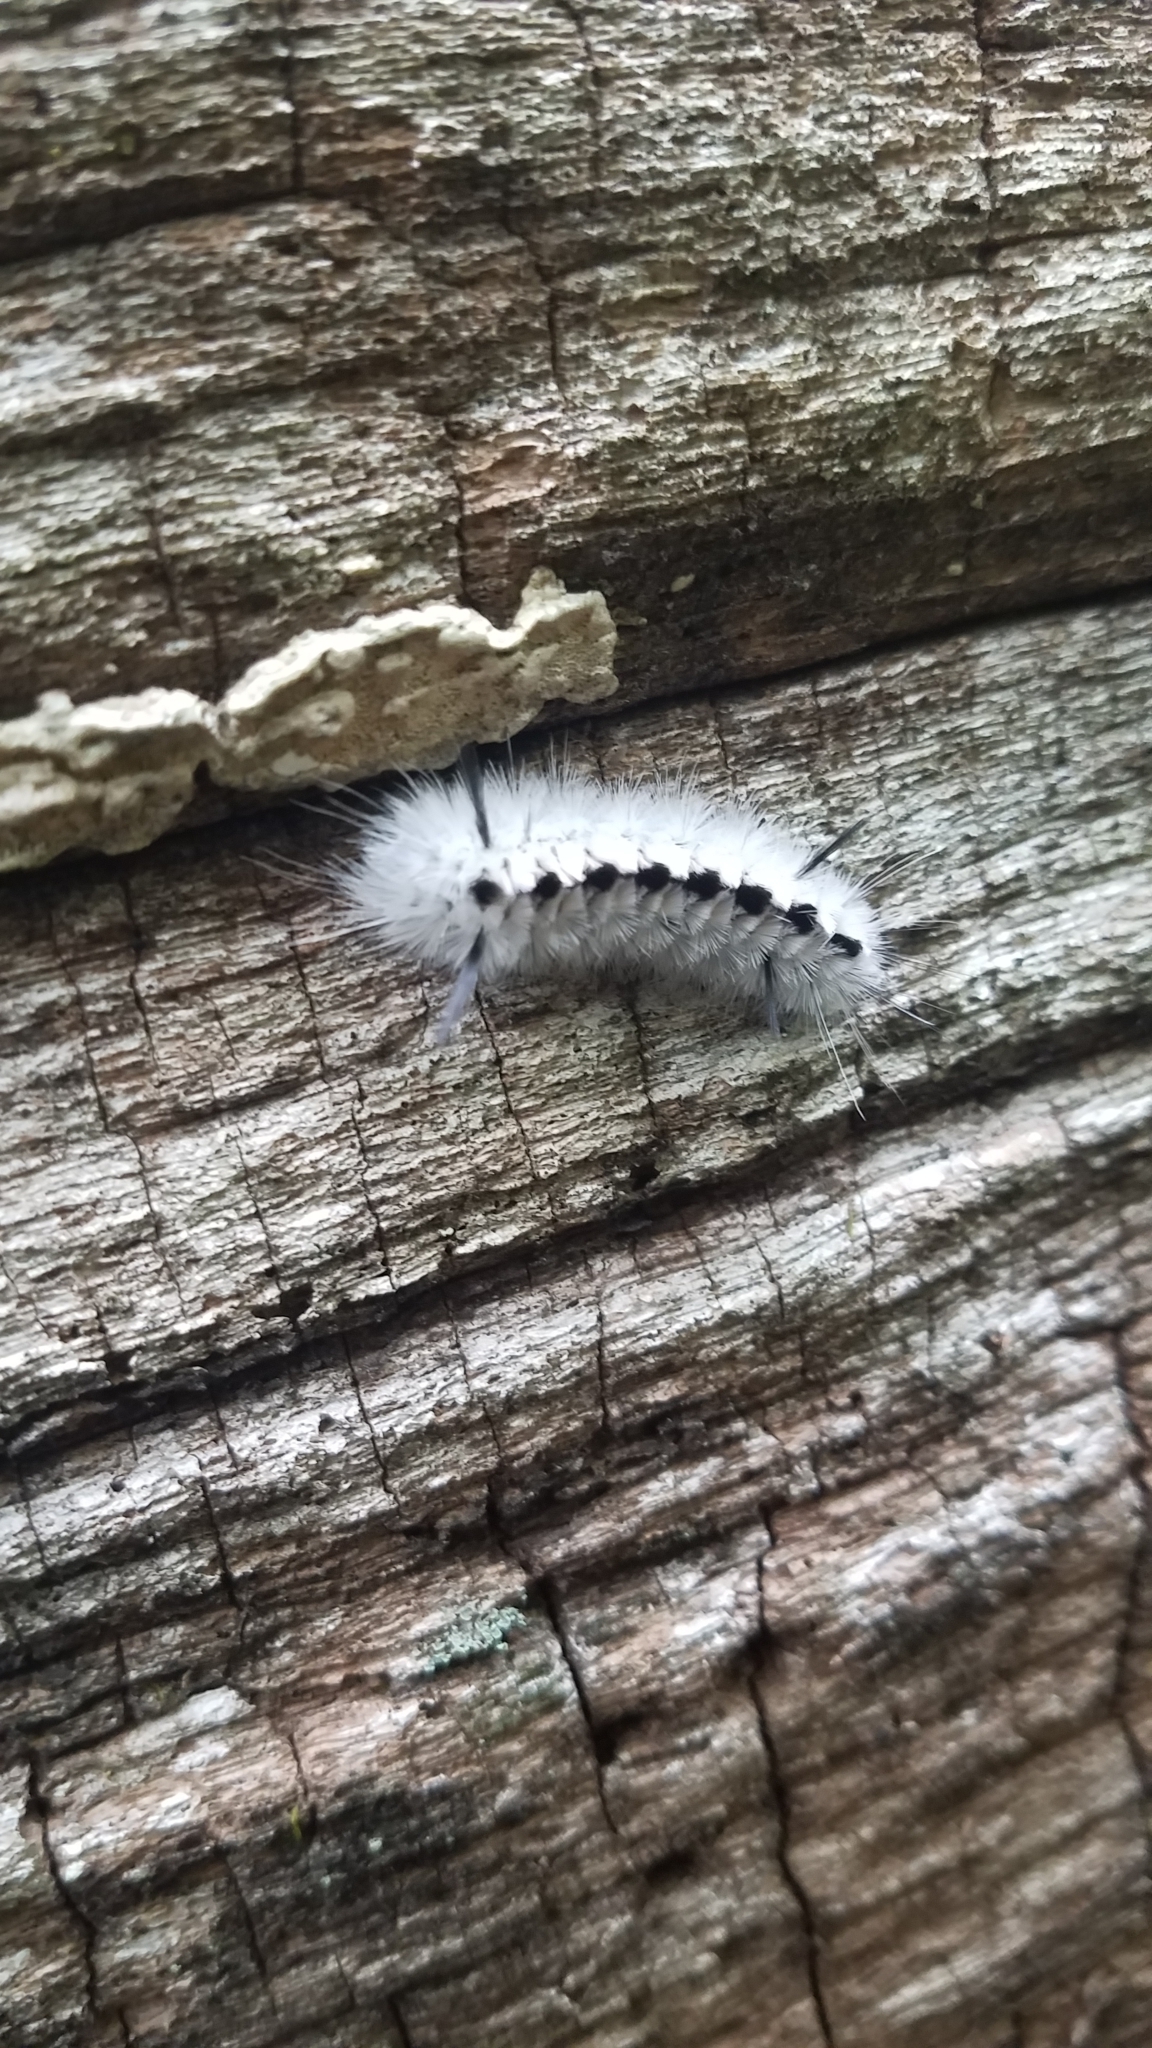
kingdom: Animalia
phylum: Arthropoda
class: Insecta
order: Lepidoptera
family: Erebidae
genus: Lophocampa
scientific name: Lophocampa caryae
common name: Hickory tussock moth
